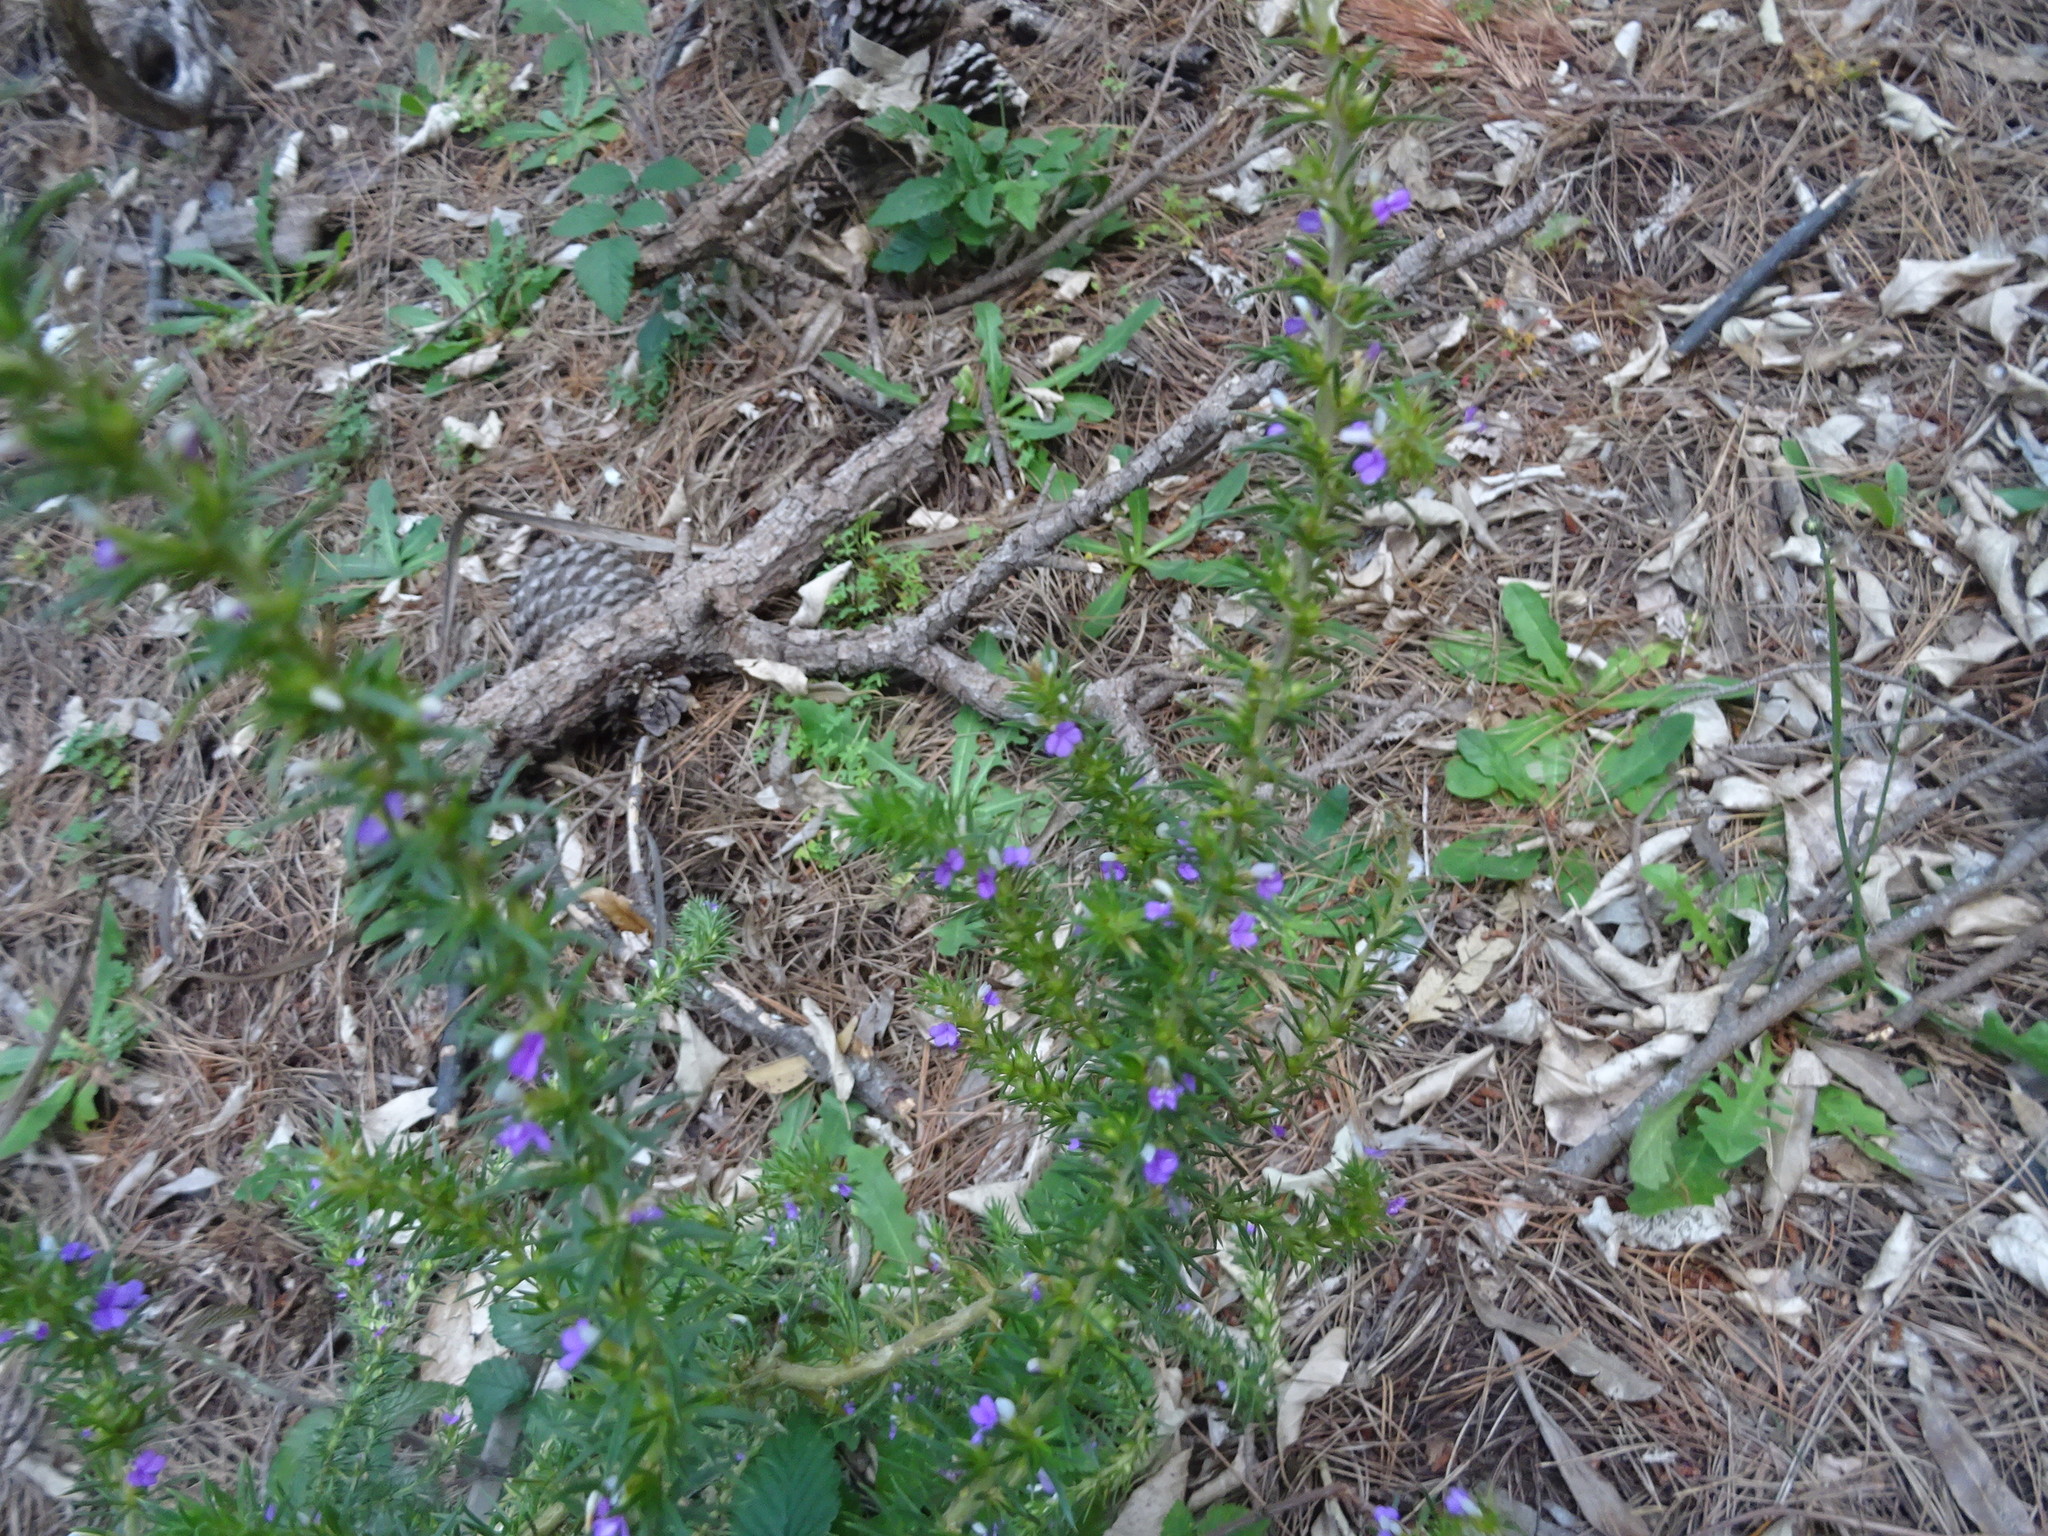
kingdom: Plantae
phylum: Tracheophyta
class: Magnoliopsida
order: Fabales
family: Polygalaceae
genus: Muraltia
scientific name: Muraltia heisteria
